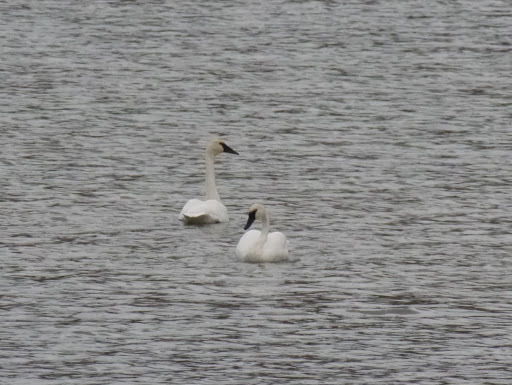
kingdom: Animalia
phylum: Chordata
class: Aves
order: Anseriformes
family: Anatidae
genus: Cygnus
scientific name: Cygnus buccinator
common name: Trumpeter swan
